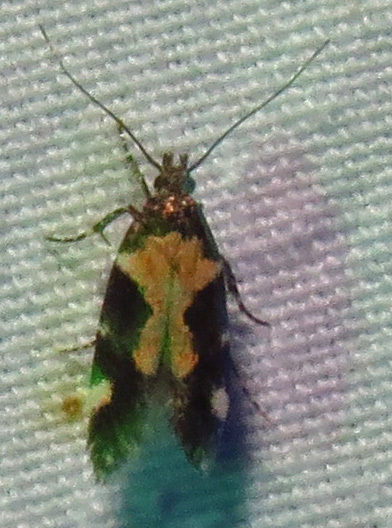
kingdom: Animalia
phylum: Arthropoda
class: Insecta
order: Lepidoptera
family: Gelechiidae
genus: Stegasta
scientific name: Stegasta bosqueella
